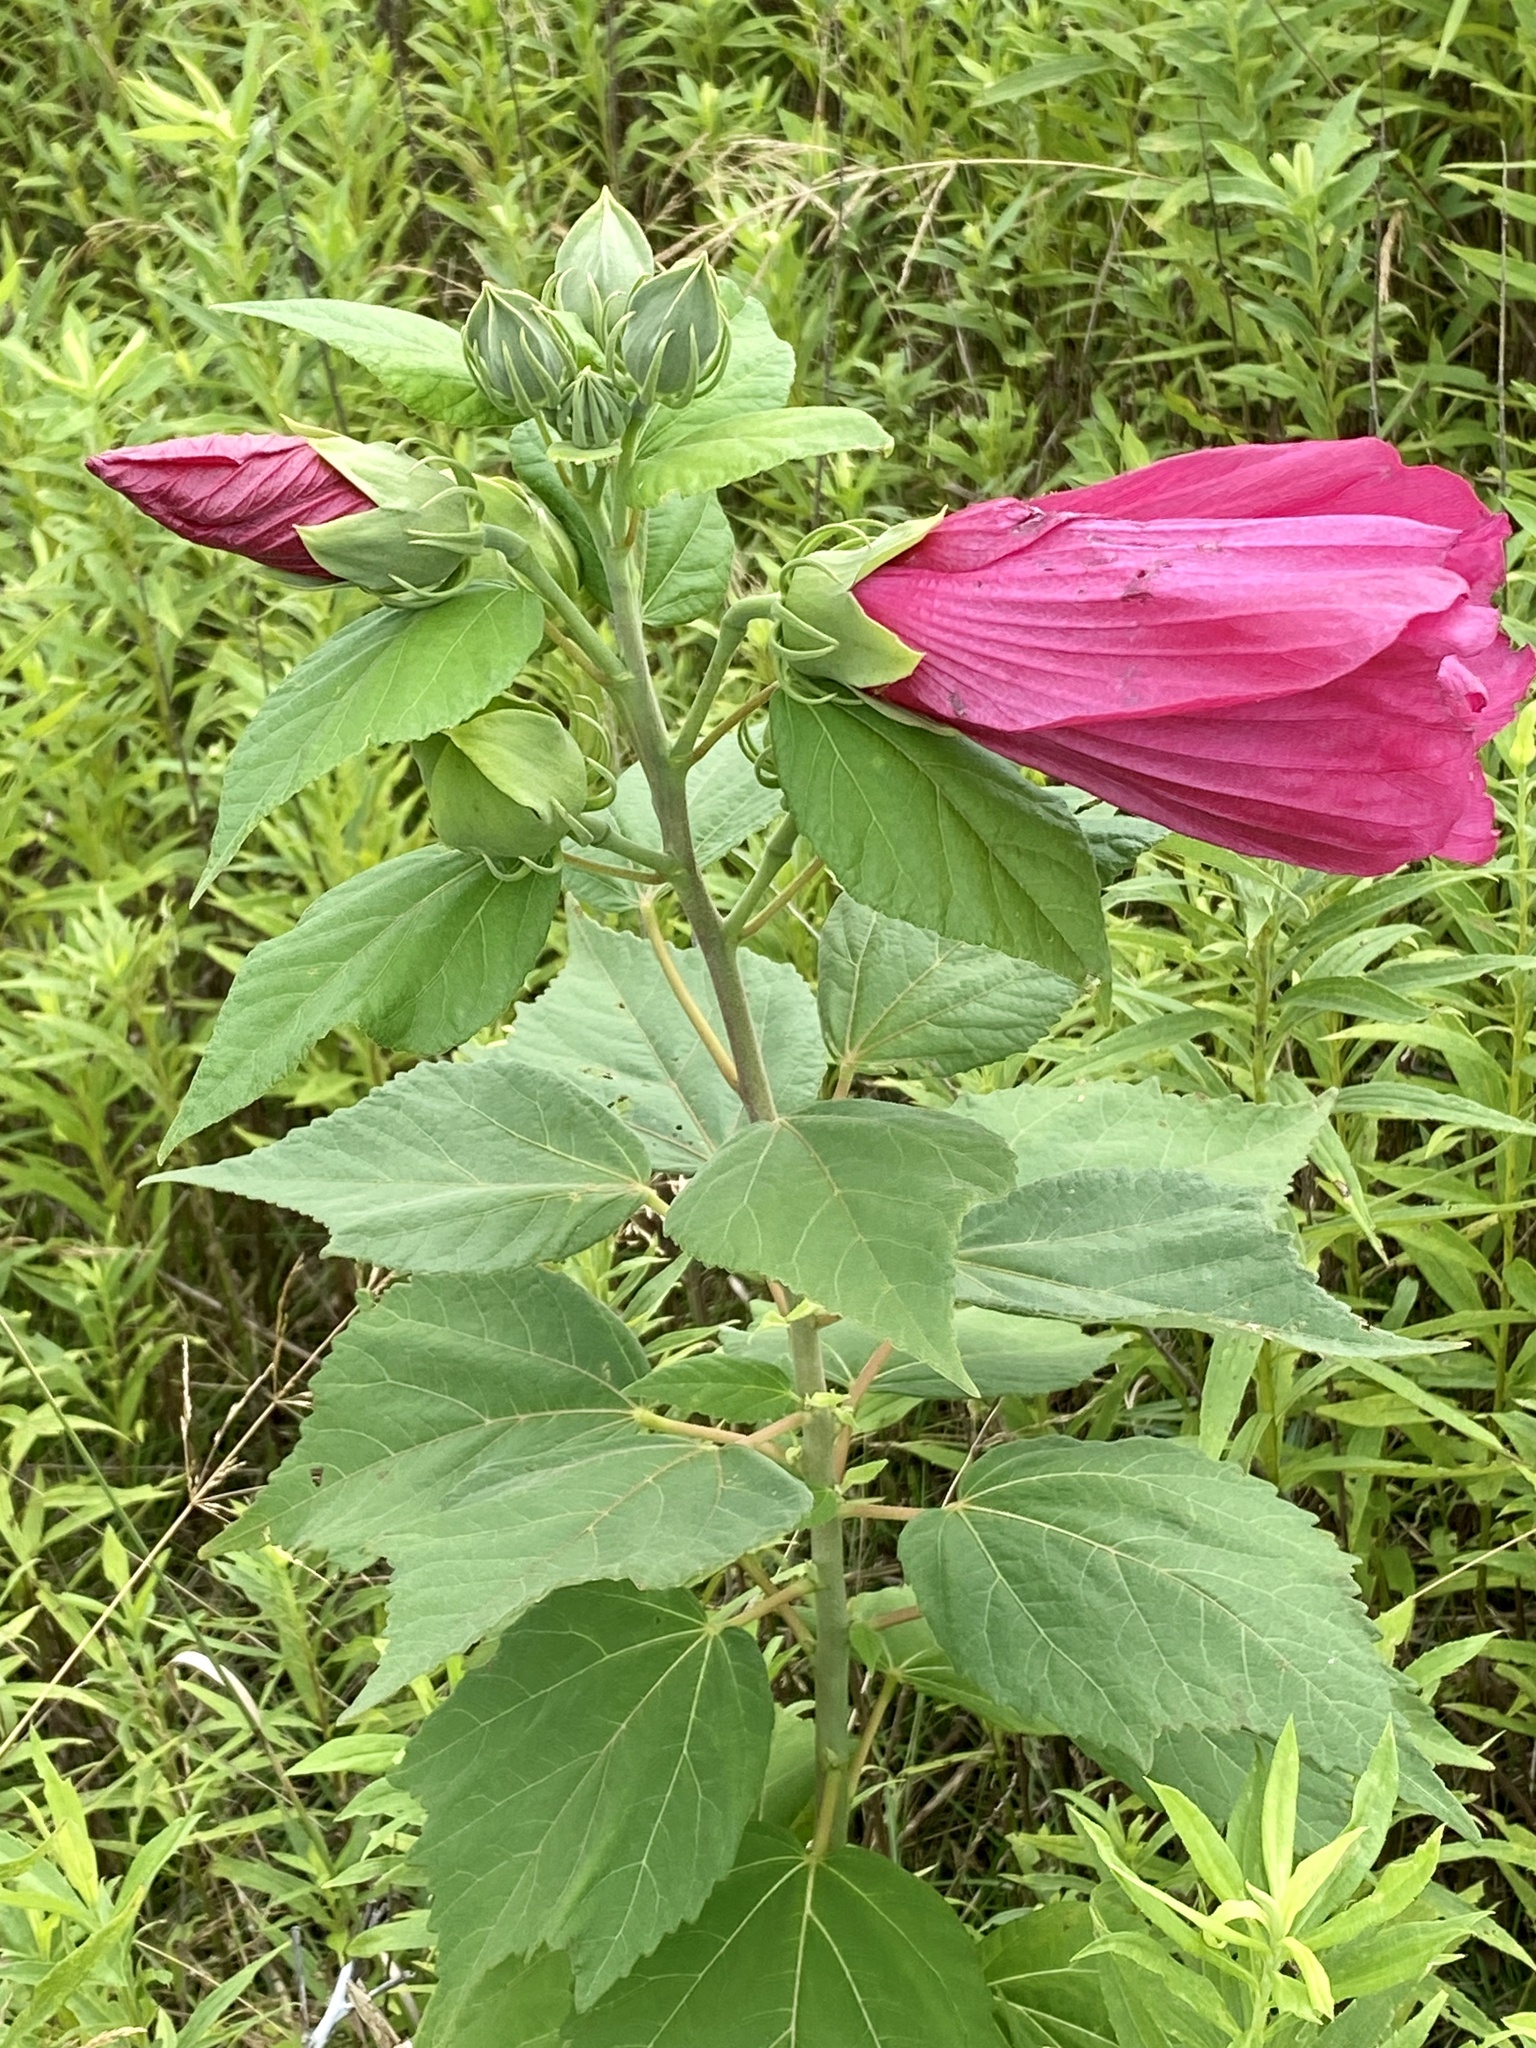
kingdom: Plantae
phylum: Tracheophyta
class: Magnoliopsida
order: Malvales
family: Malvaceae
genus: Hibiscus
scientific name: Hibiscus moscheutos
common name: Common rose-mallow
